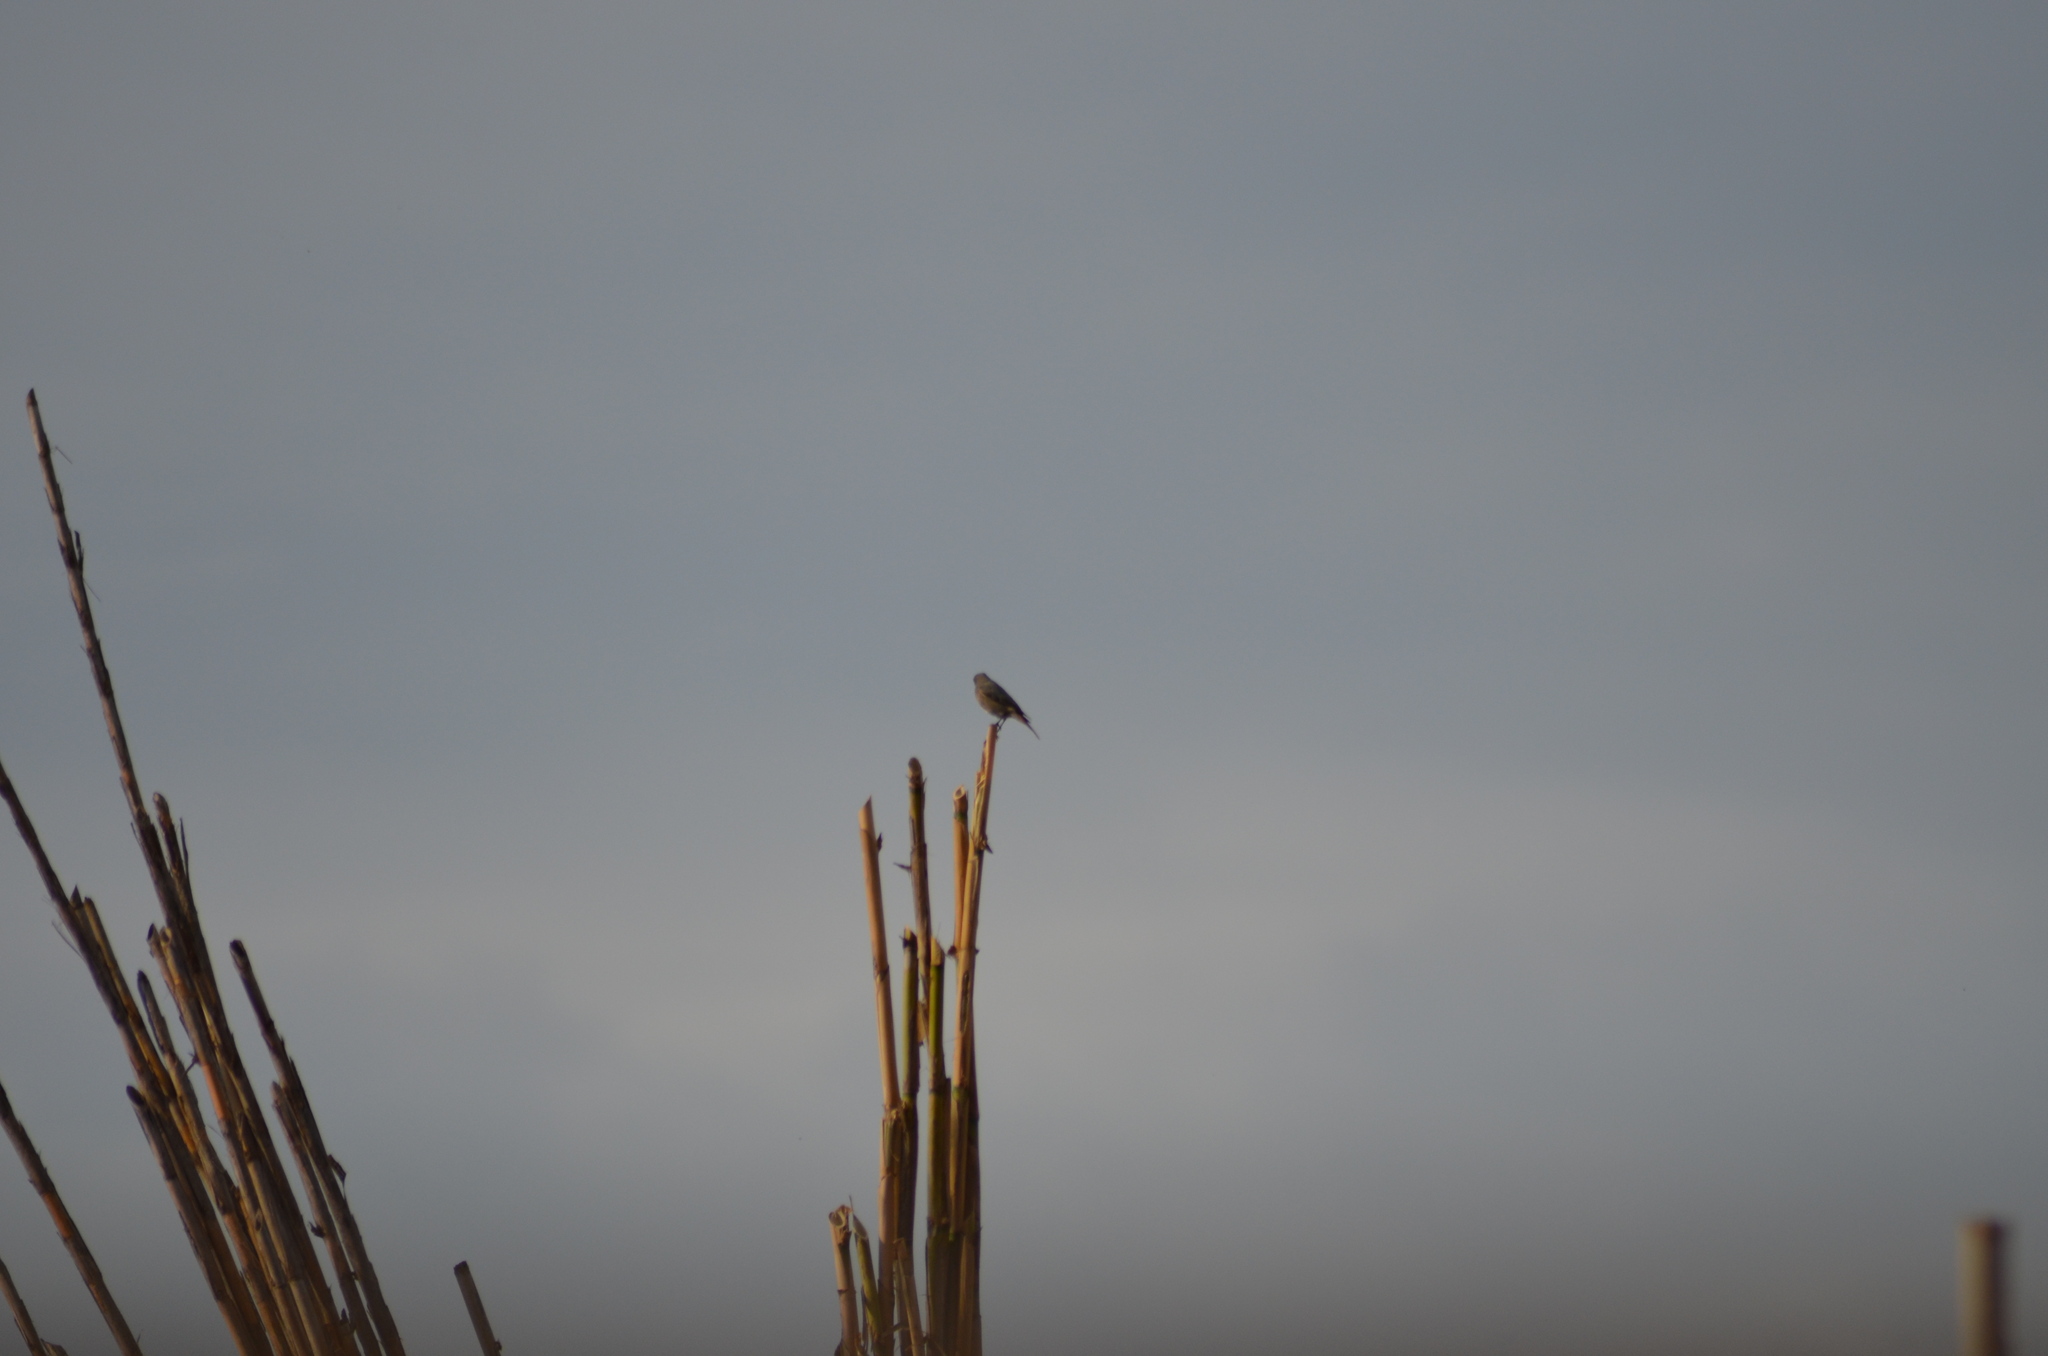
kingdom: Animalia
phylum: Chordata
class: Aves
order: Passeriformes
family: Muscicapidae
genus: Phoenicurus
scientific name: Phoenicurus ochruros
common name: Black redstart
